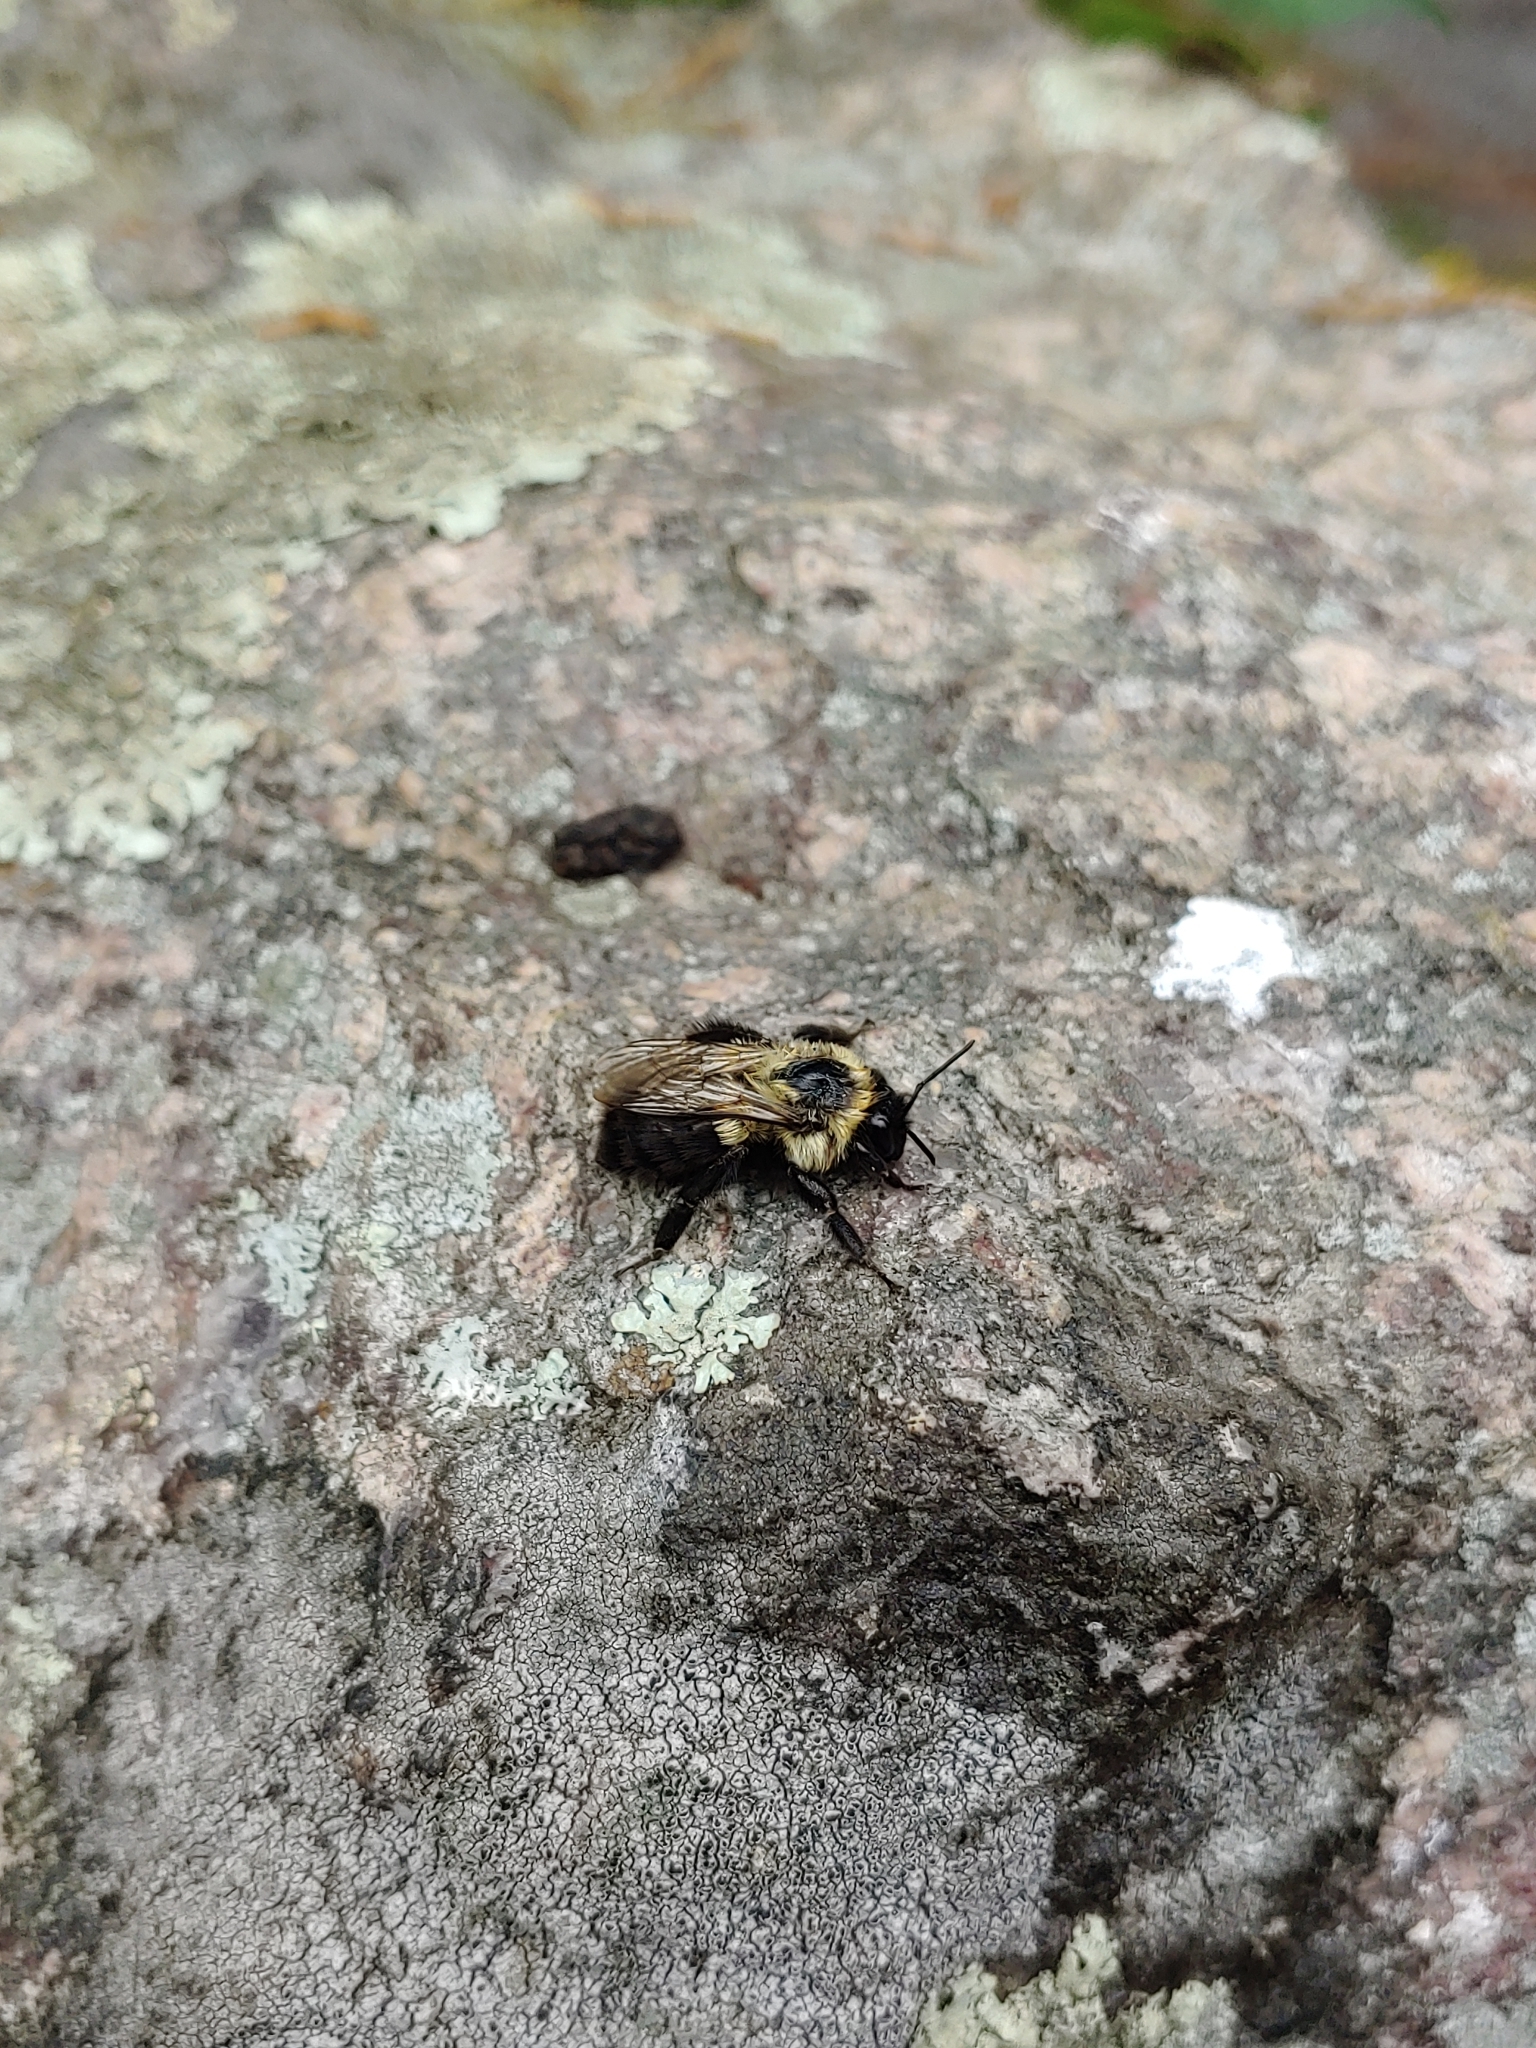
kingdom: Animalia
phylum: Arthropoda
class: Insecta
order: Hymenoptera
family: Apidae
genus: Bombus
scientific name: Bombus impatiens
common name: Common eastern bumble bee
